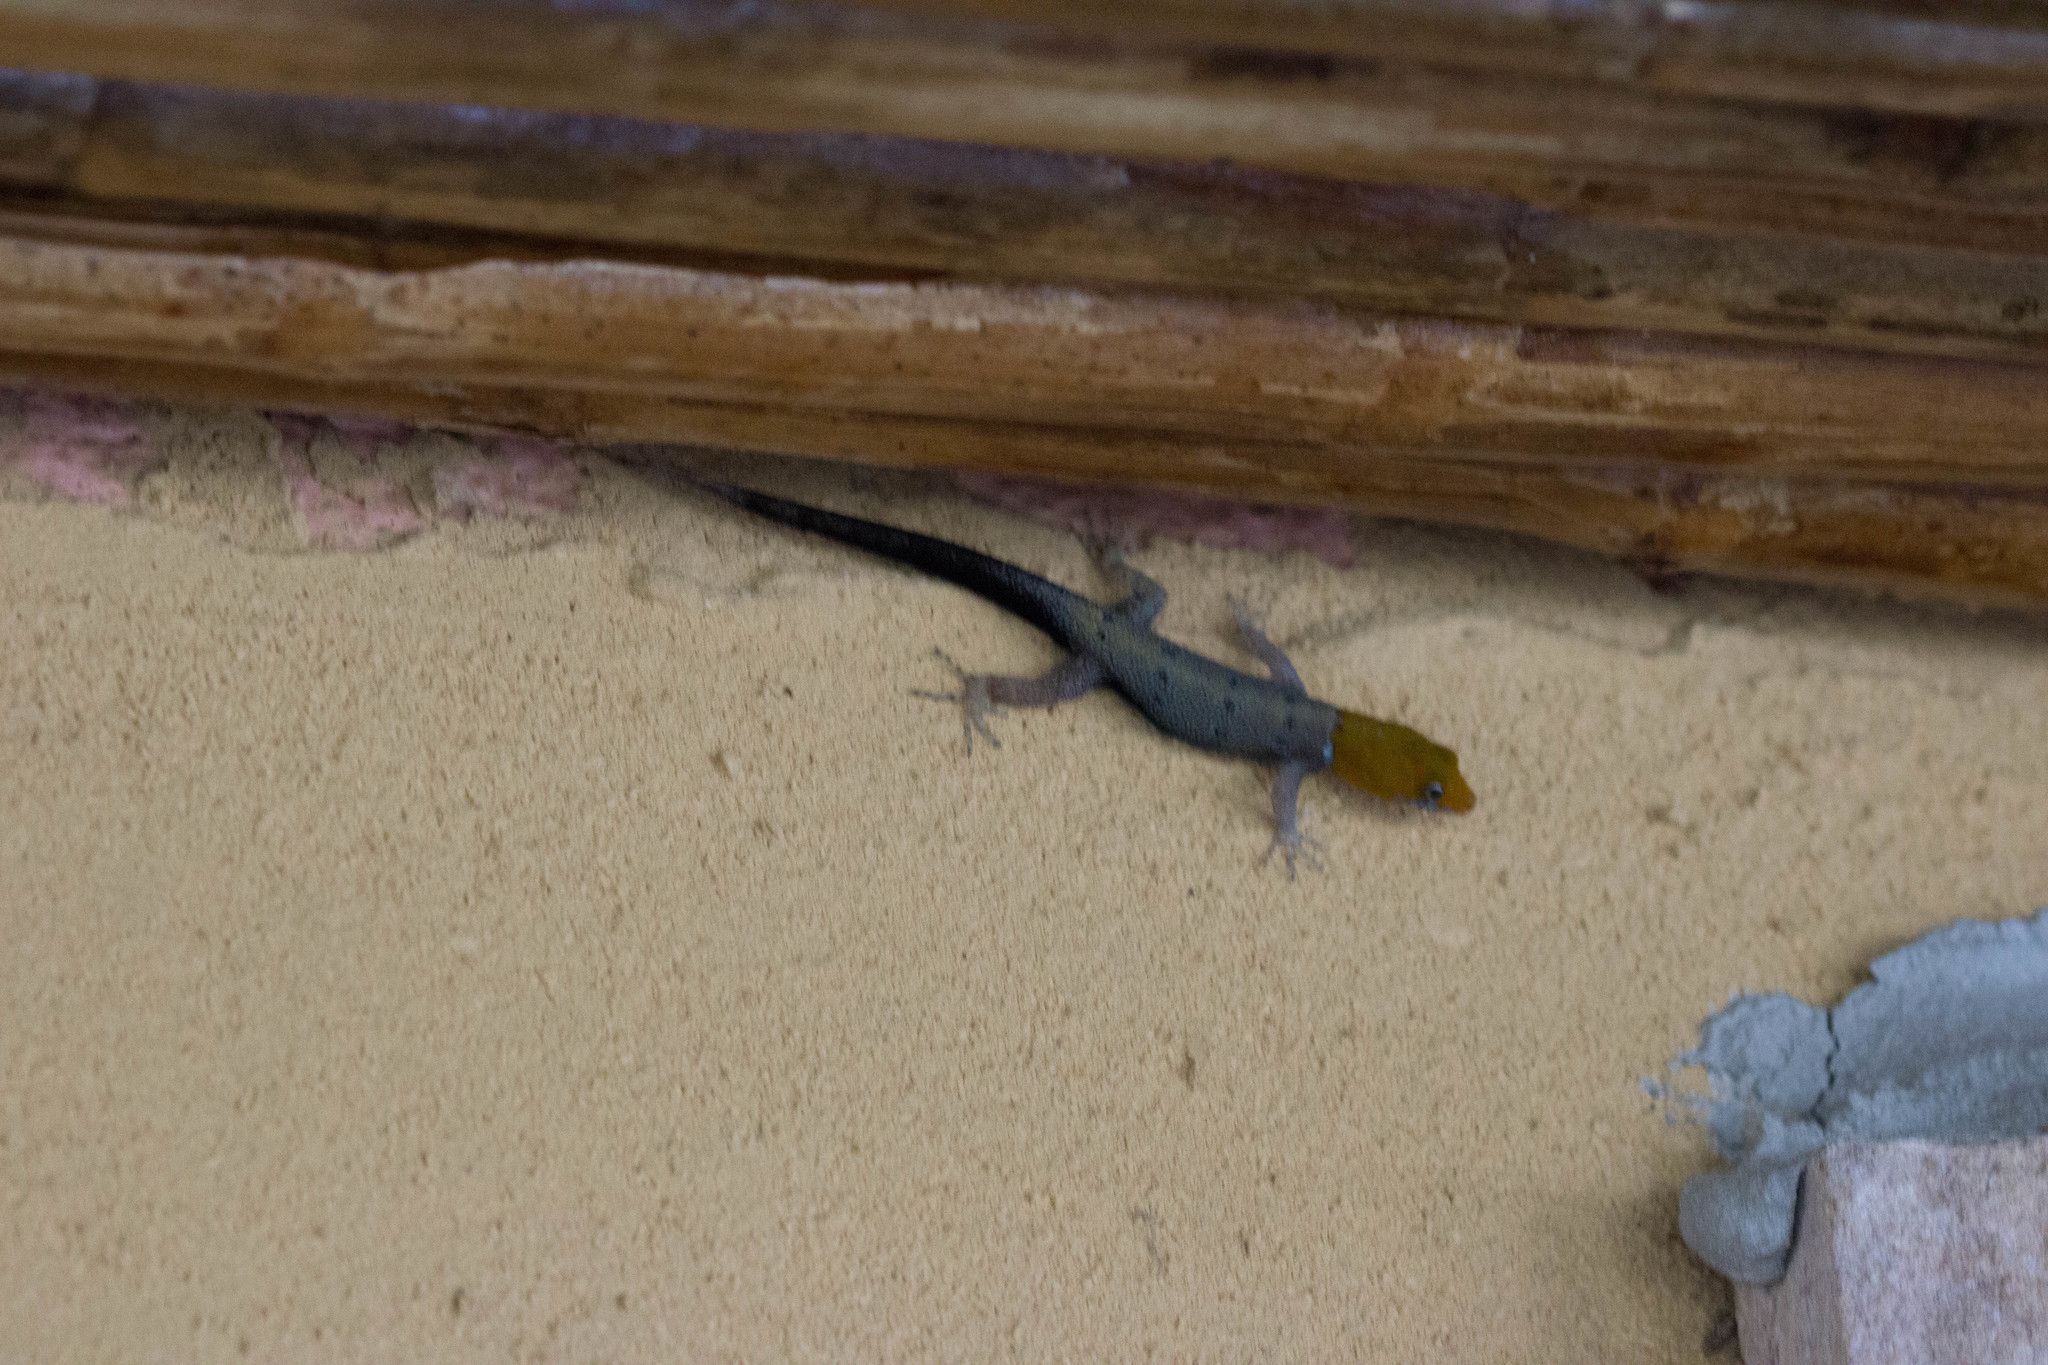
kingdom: Animalia
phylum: Chordata
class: Squamata
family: Sphaerodactylidae
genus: Gonatodes
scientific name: Gonatodes albogularis
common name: Yellow-headed gecko
